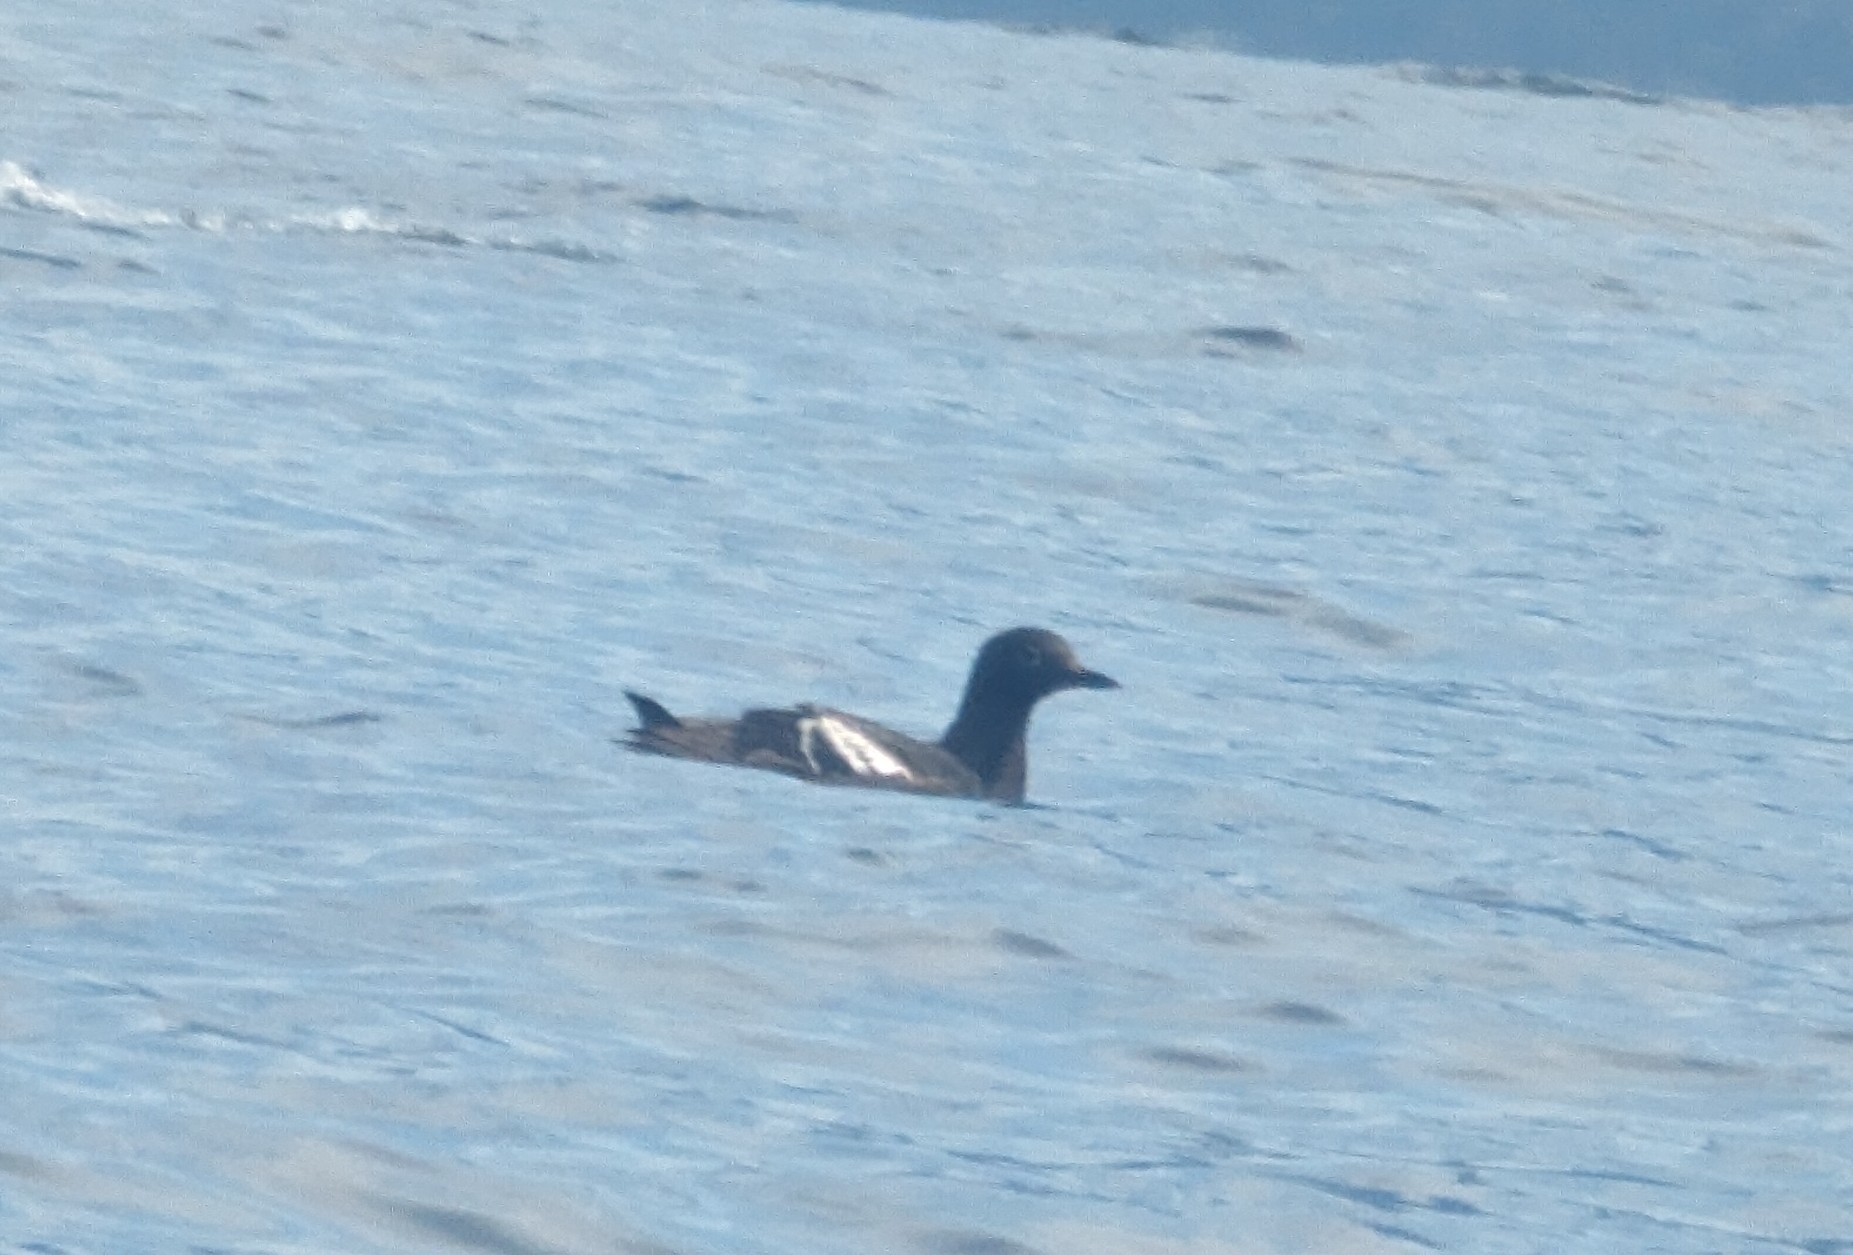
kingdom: Animalia
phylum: Chordata
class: Aves
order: Charadriiformes
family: Alcidae
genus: Cepphus
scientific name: Cepphus columba
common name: Pigeon guillemot
